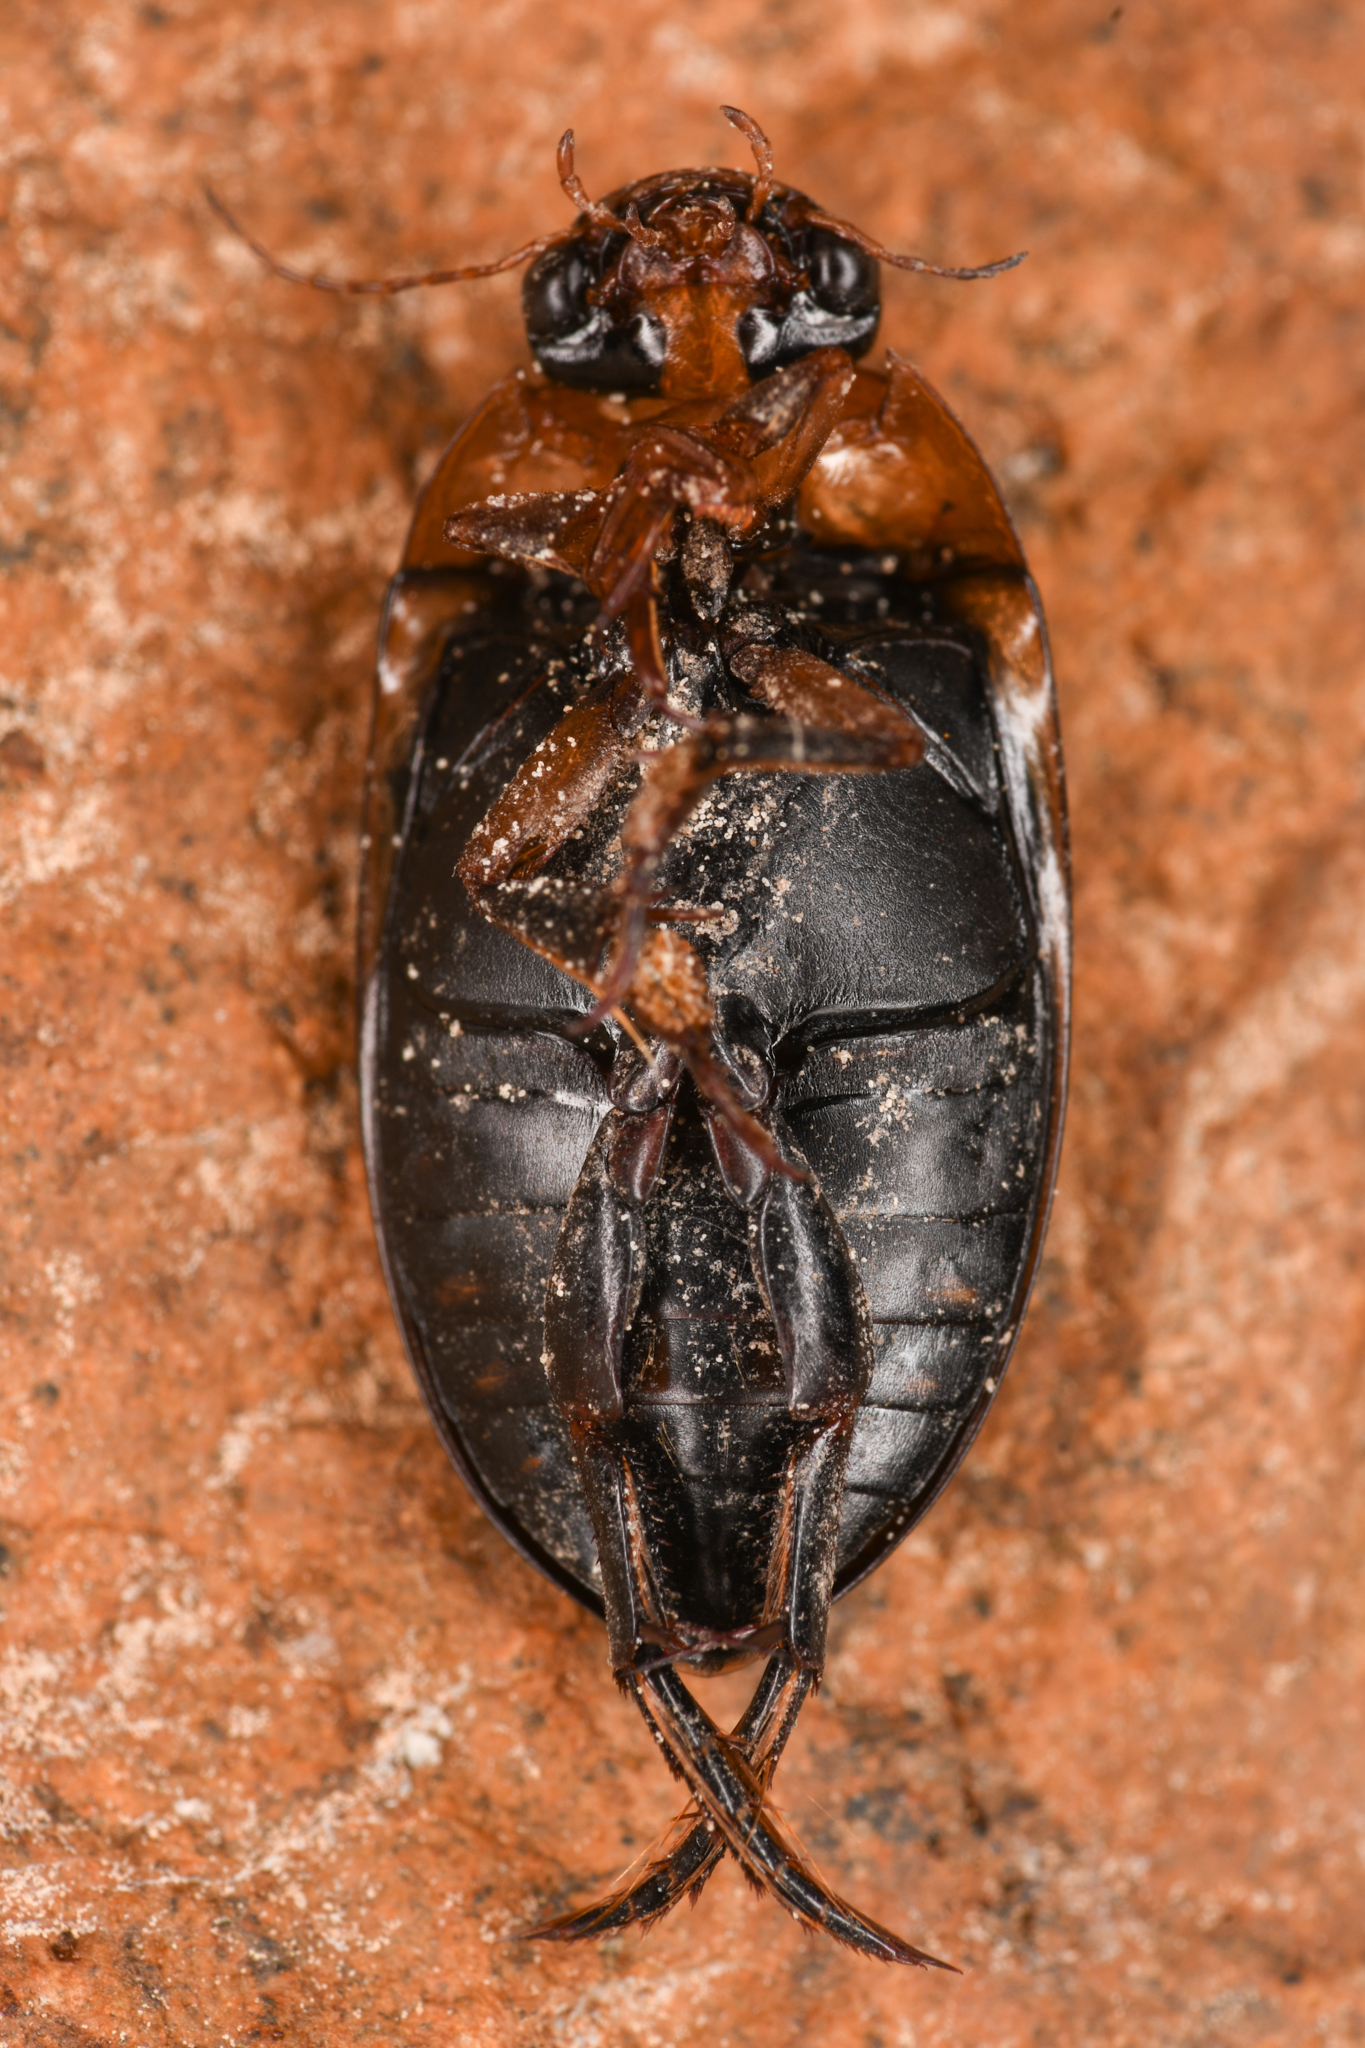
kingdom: Animalia
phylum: Arthropoda
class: Insecta
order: Coleoptera
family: Dytiscidae
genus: Hydaticus
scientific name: Hydaticus aruspex
